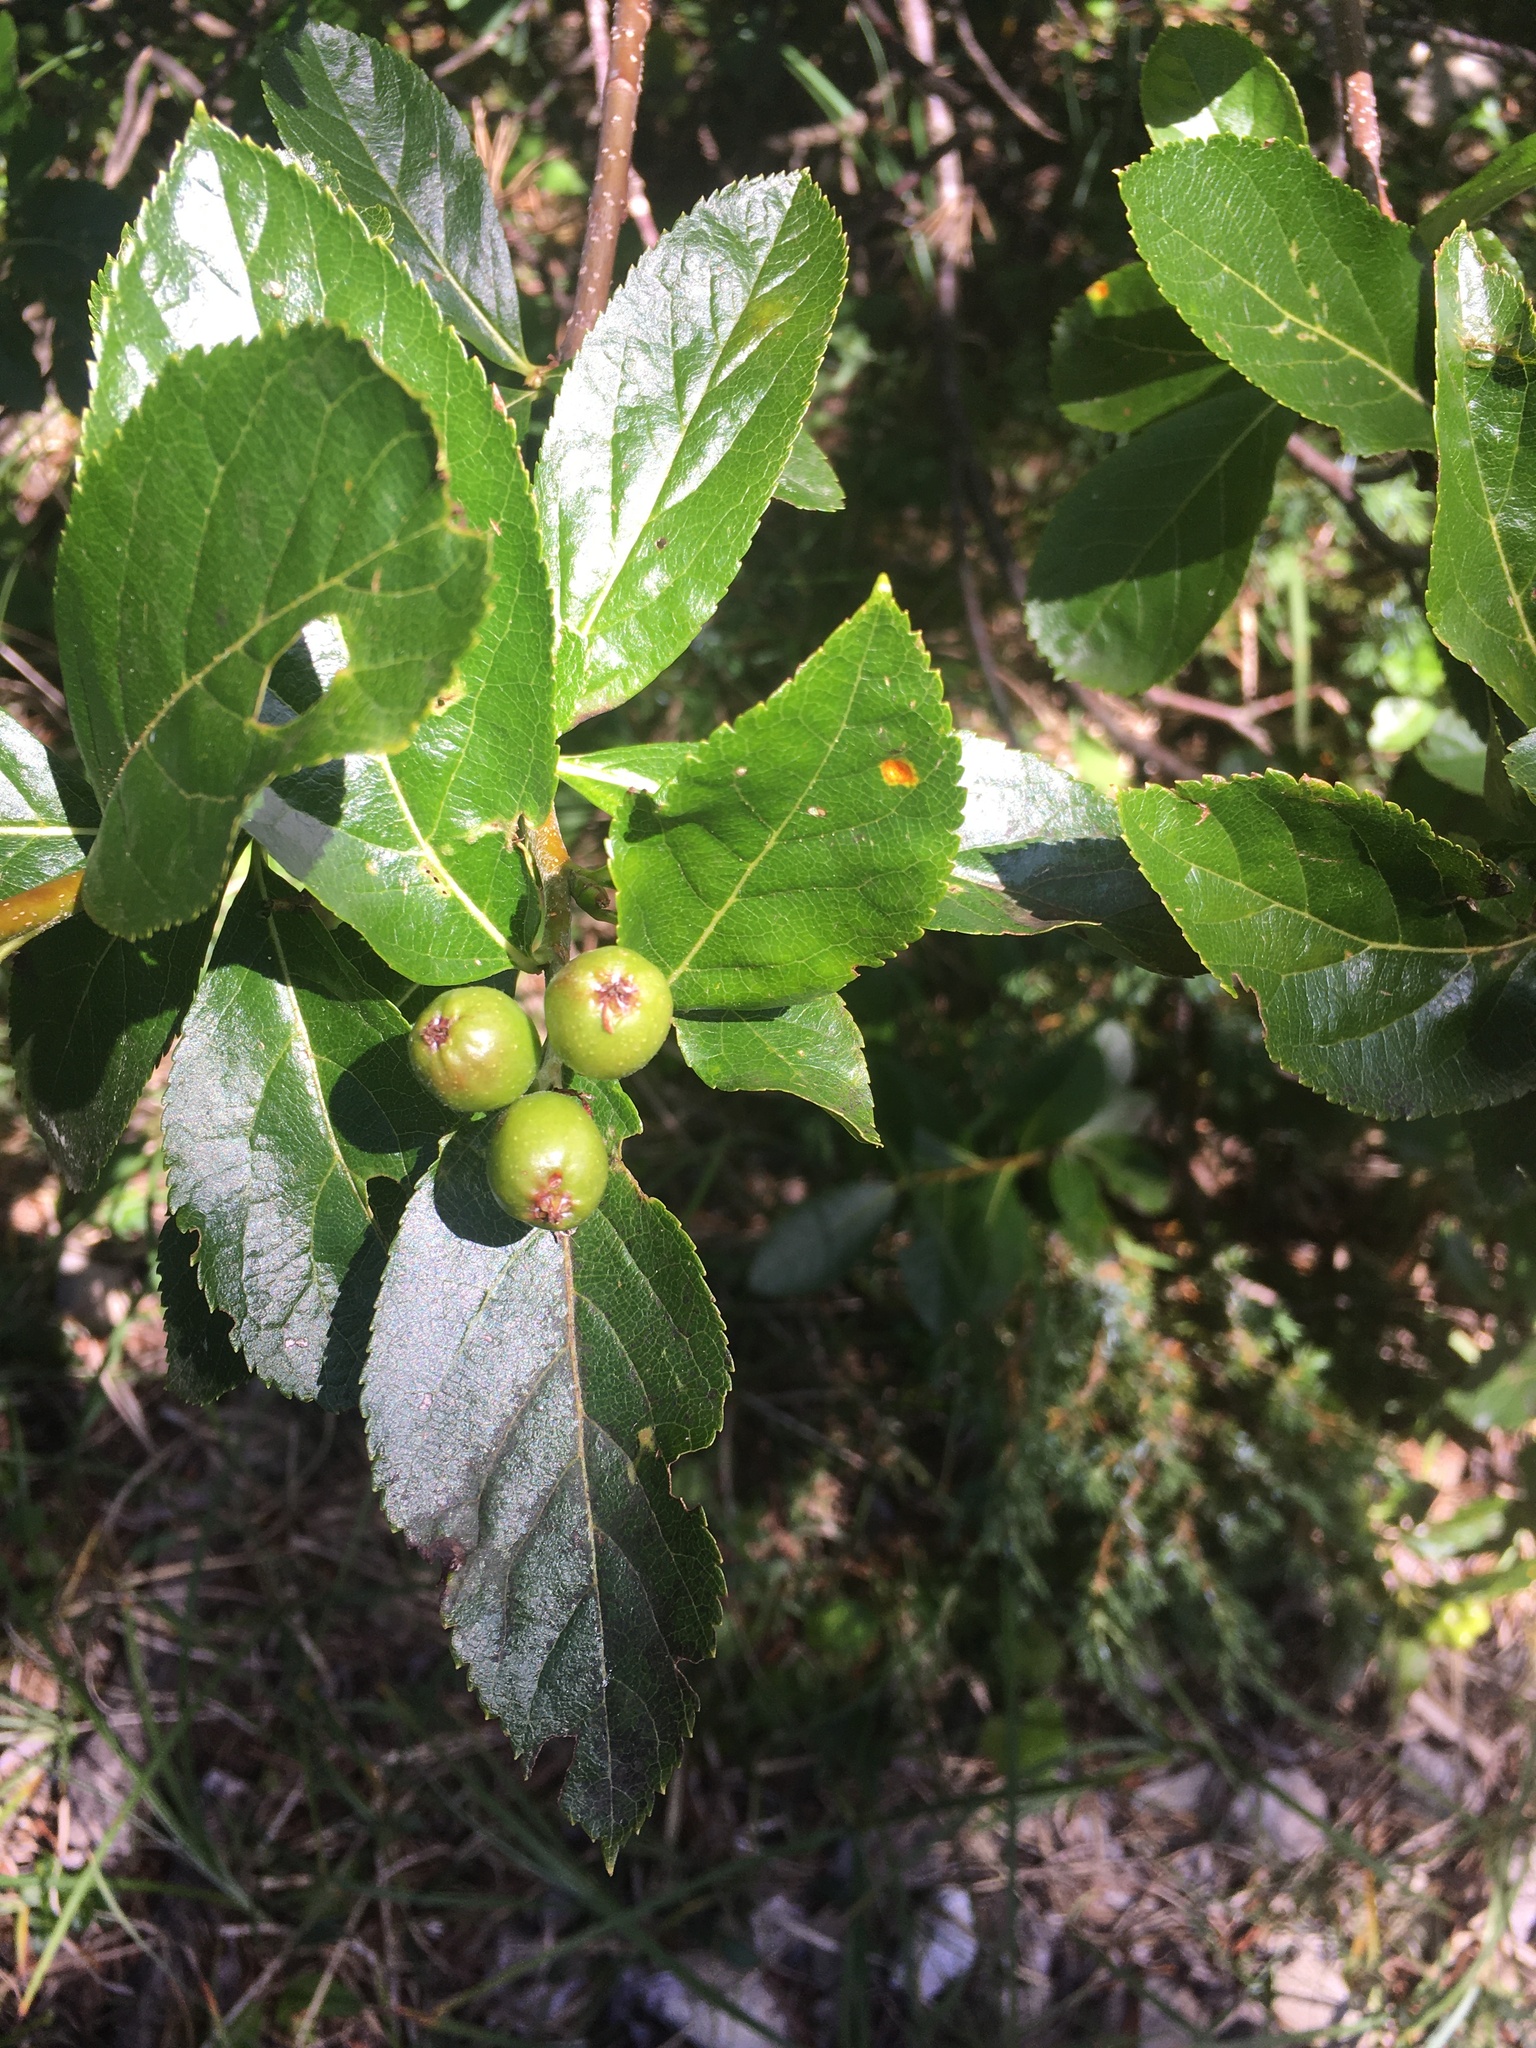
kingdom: Plantae
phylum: Tracheophyta
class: Magnoliopsida
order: Rosales
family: Rosaceae
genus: Chamaemespilus
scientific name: Chamaemespilus alpina
